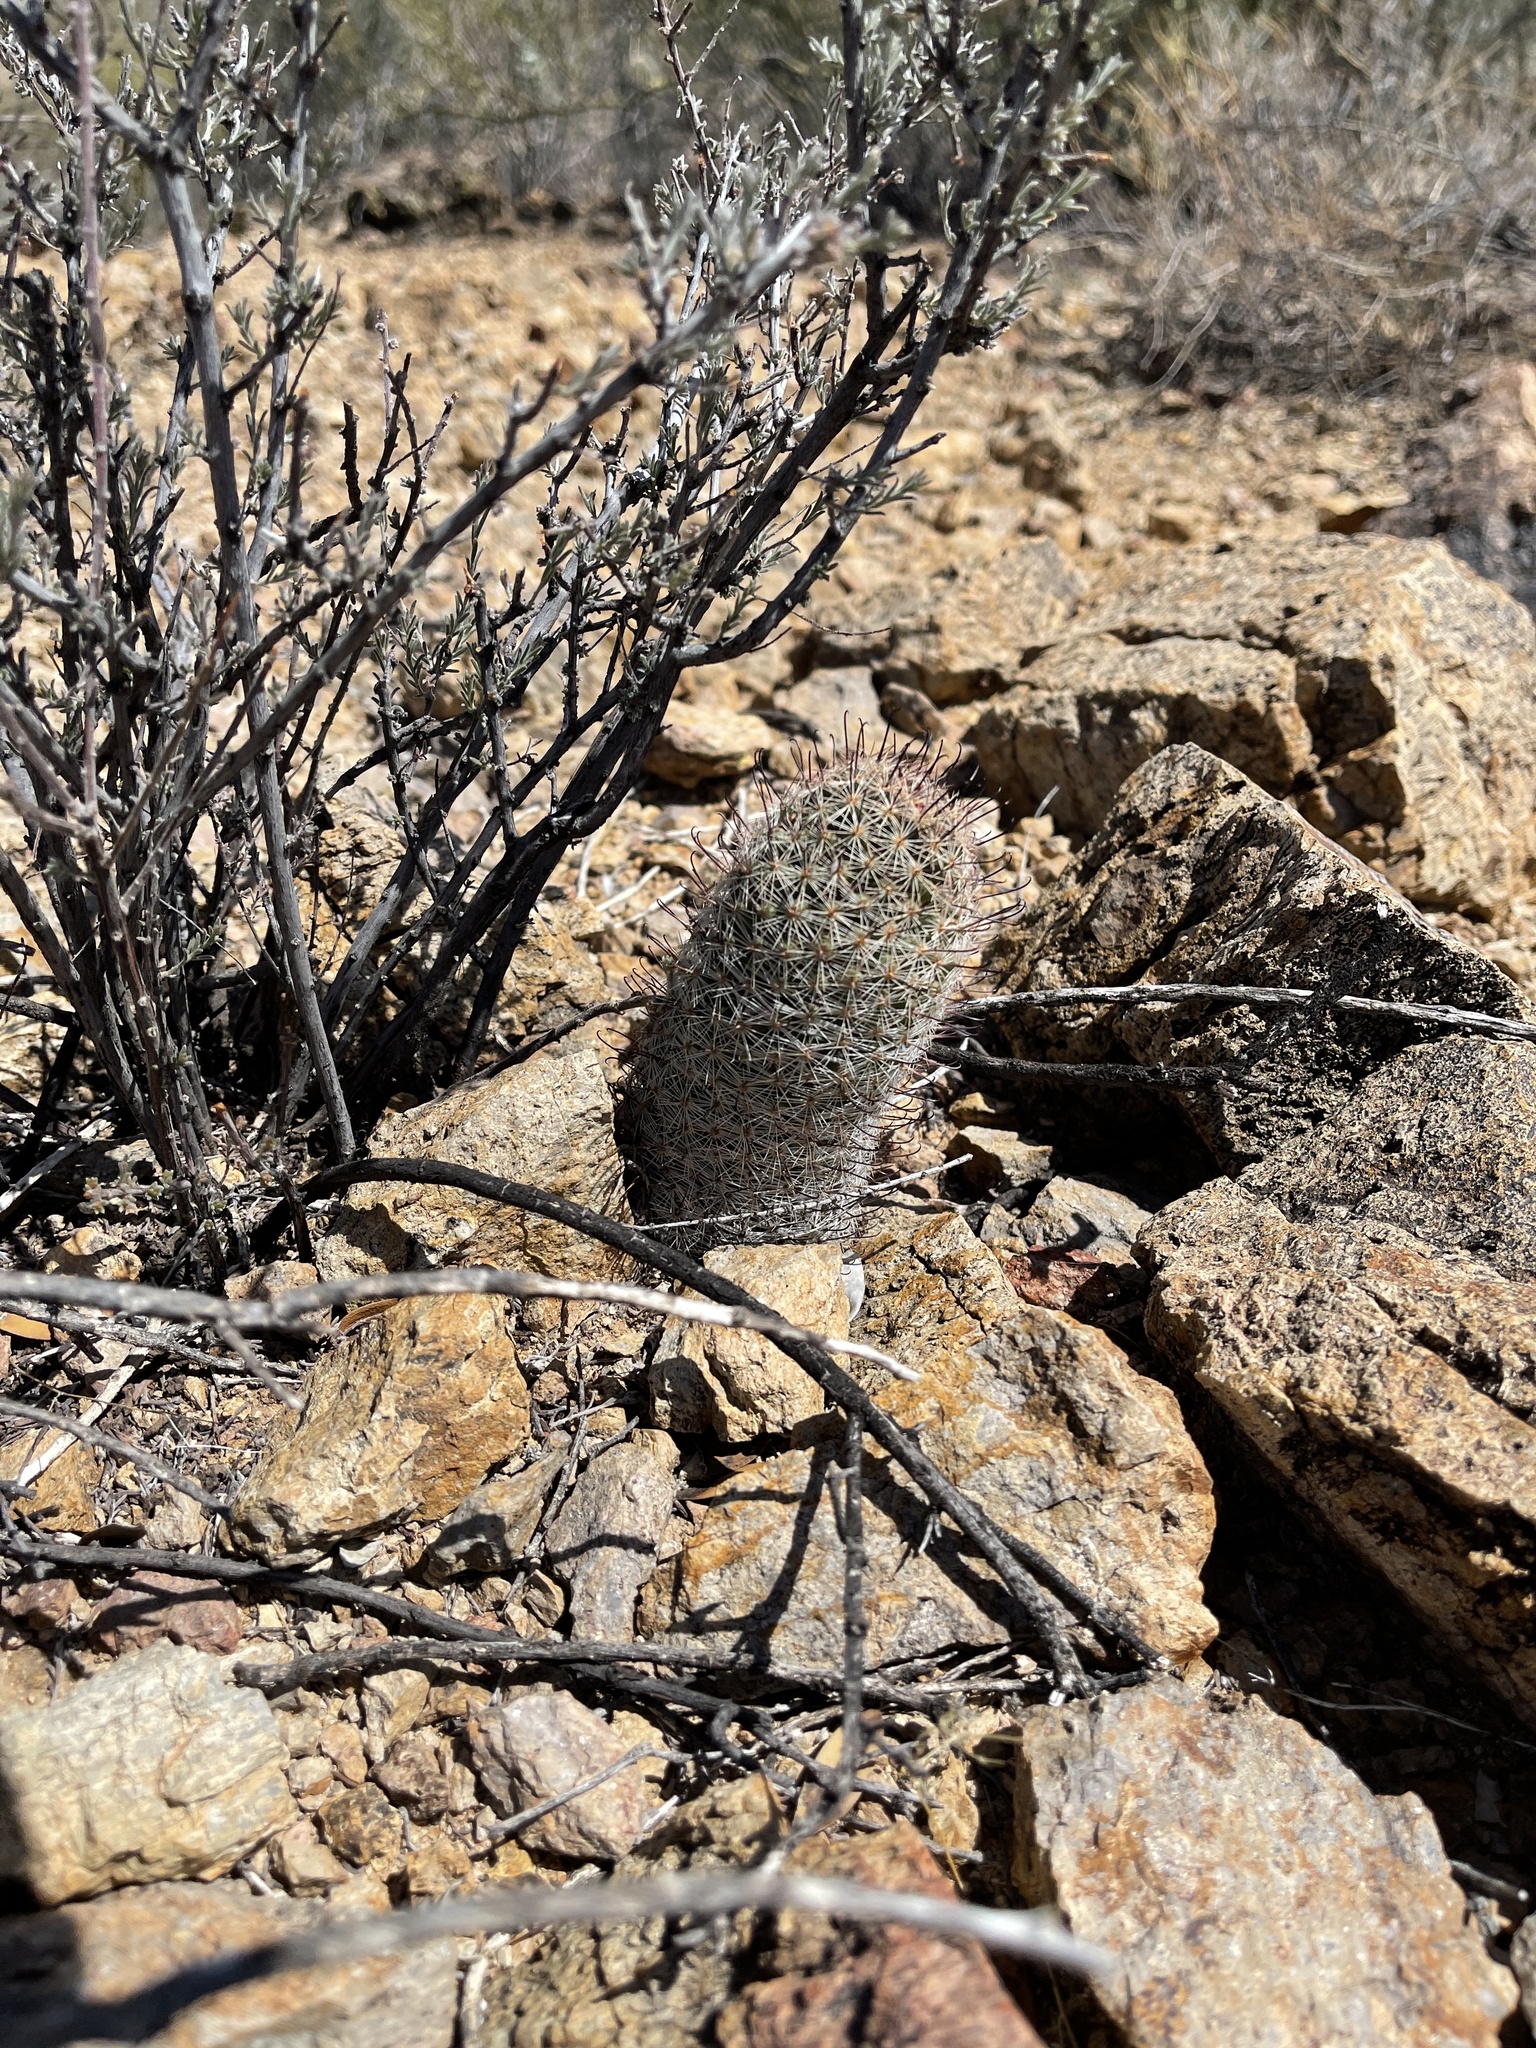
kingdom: Plantae
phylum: Tracheophyta
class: Magnoliopsida
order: Caryophyllales
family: Cactaceae
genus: Cochemiea
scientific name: Cochemiea grahamii
